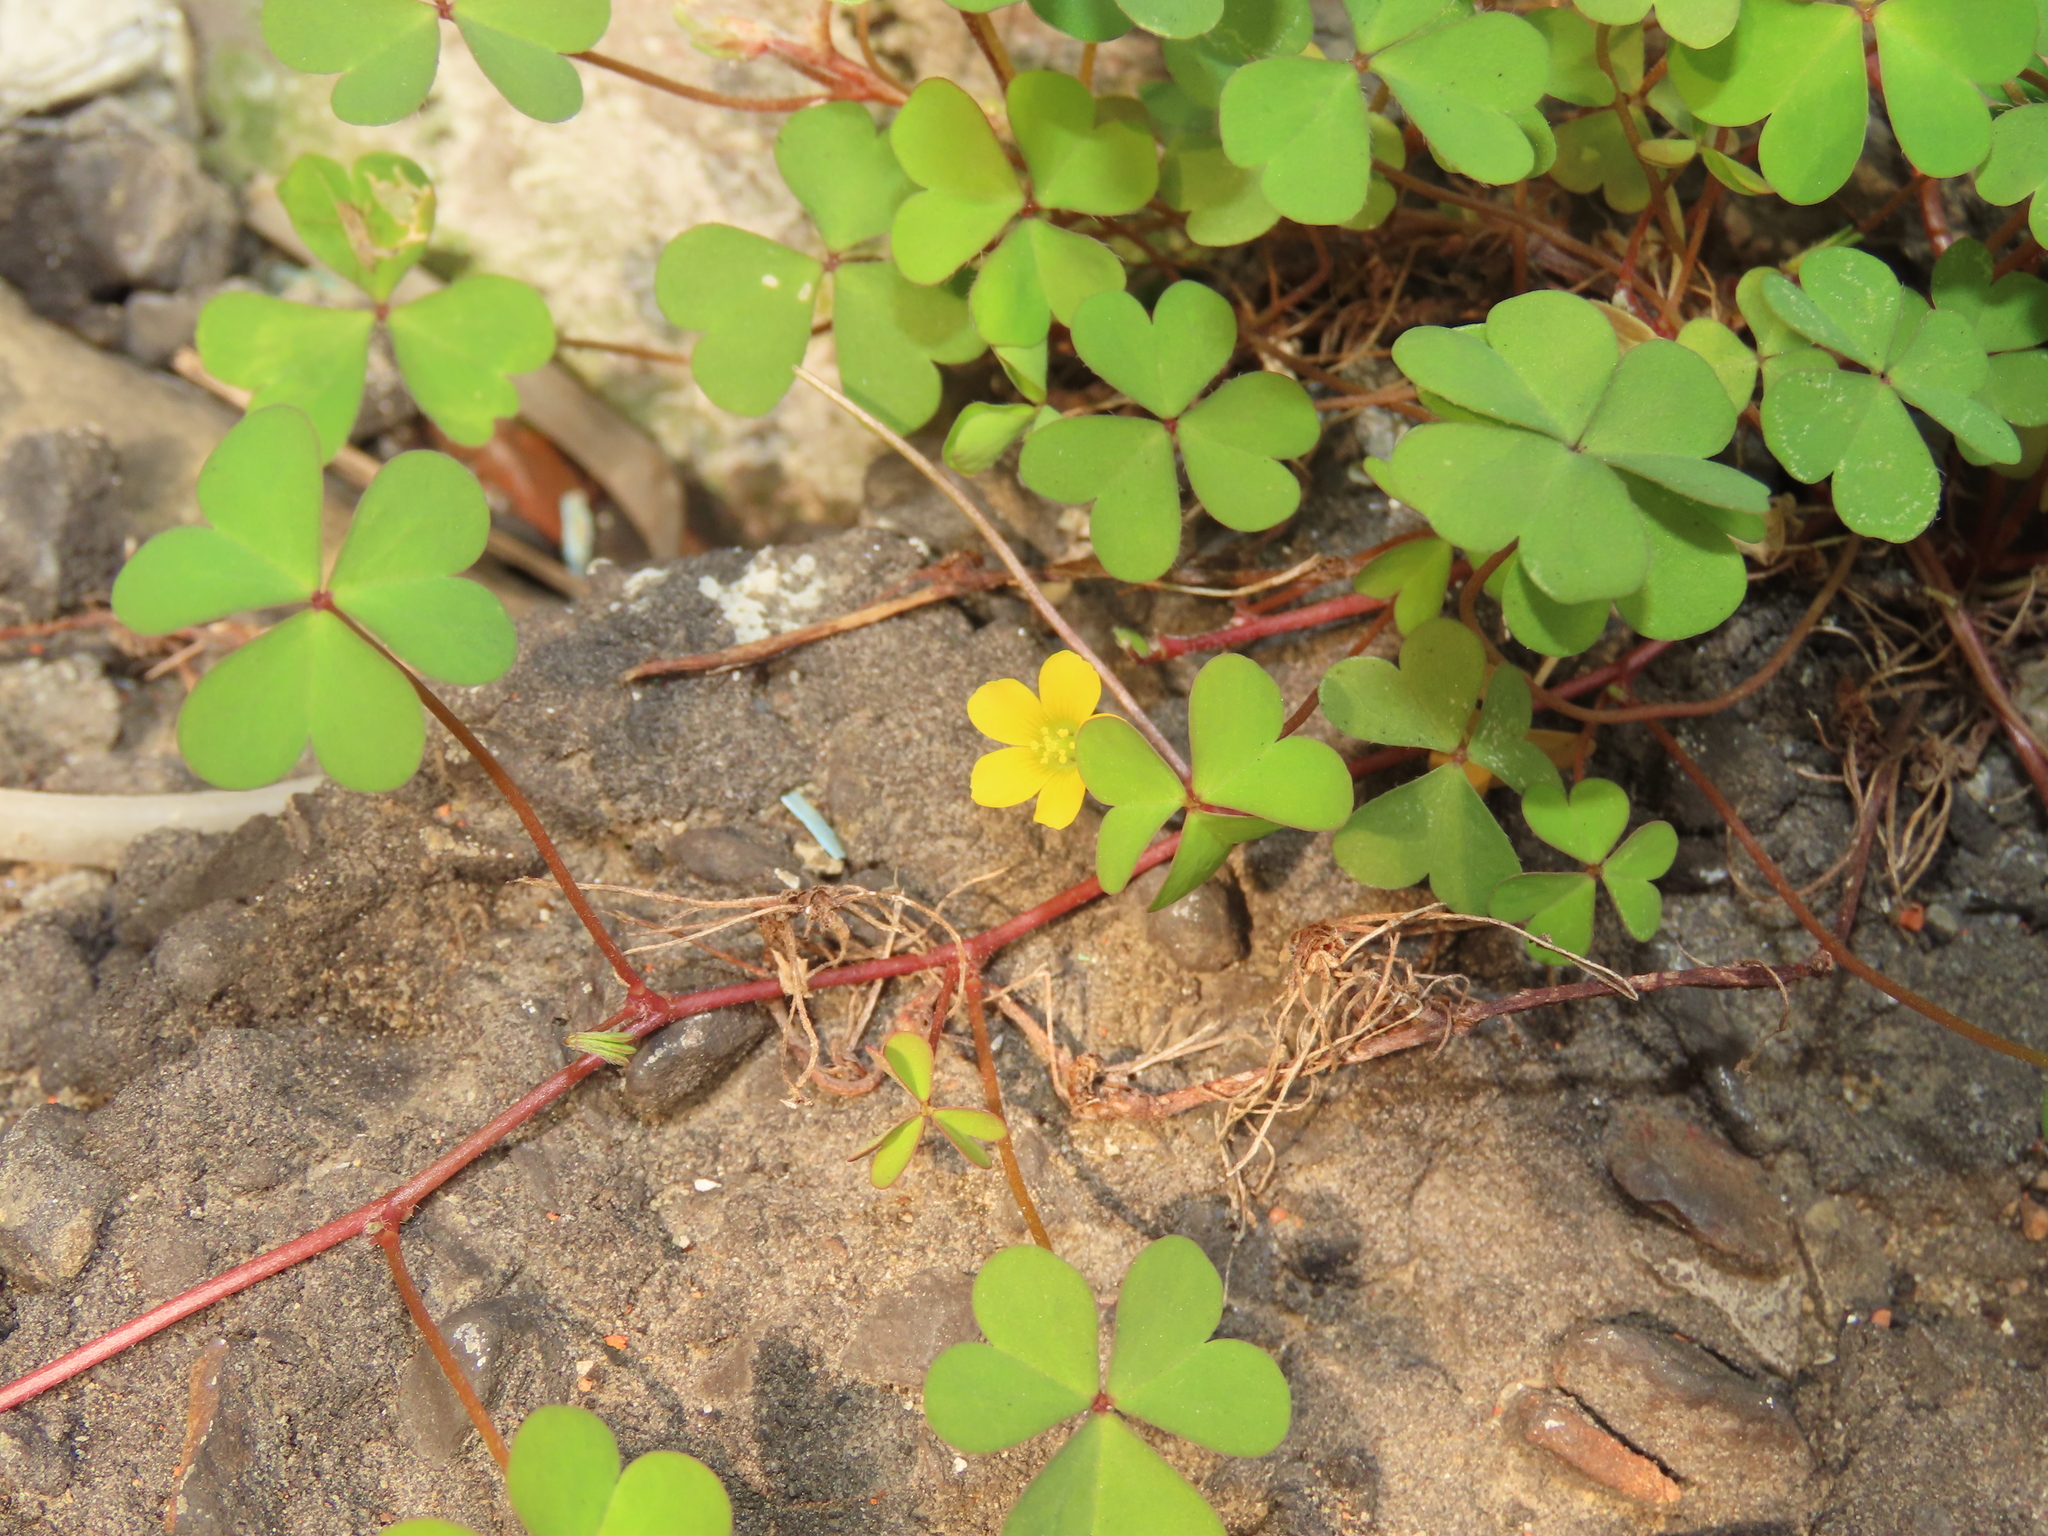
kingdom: Plantae
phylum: Tracheophyta
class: Magnoliopsida
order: Oxalidales
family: Oxalidaceae
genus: Oxalis
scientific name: Oxalis corniculata
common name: Procumbent yellow-sorrel
